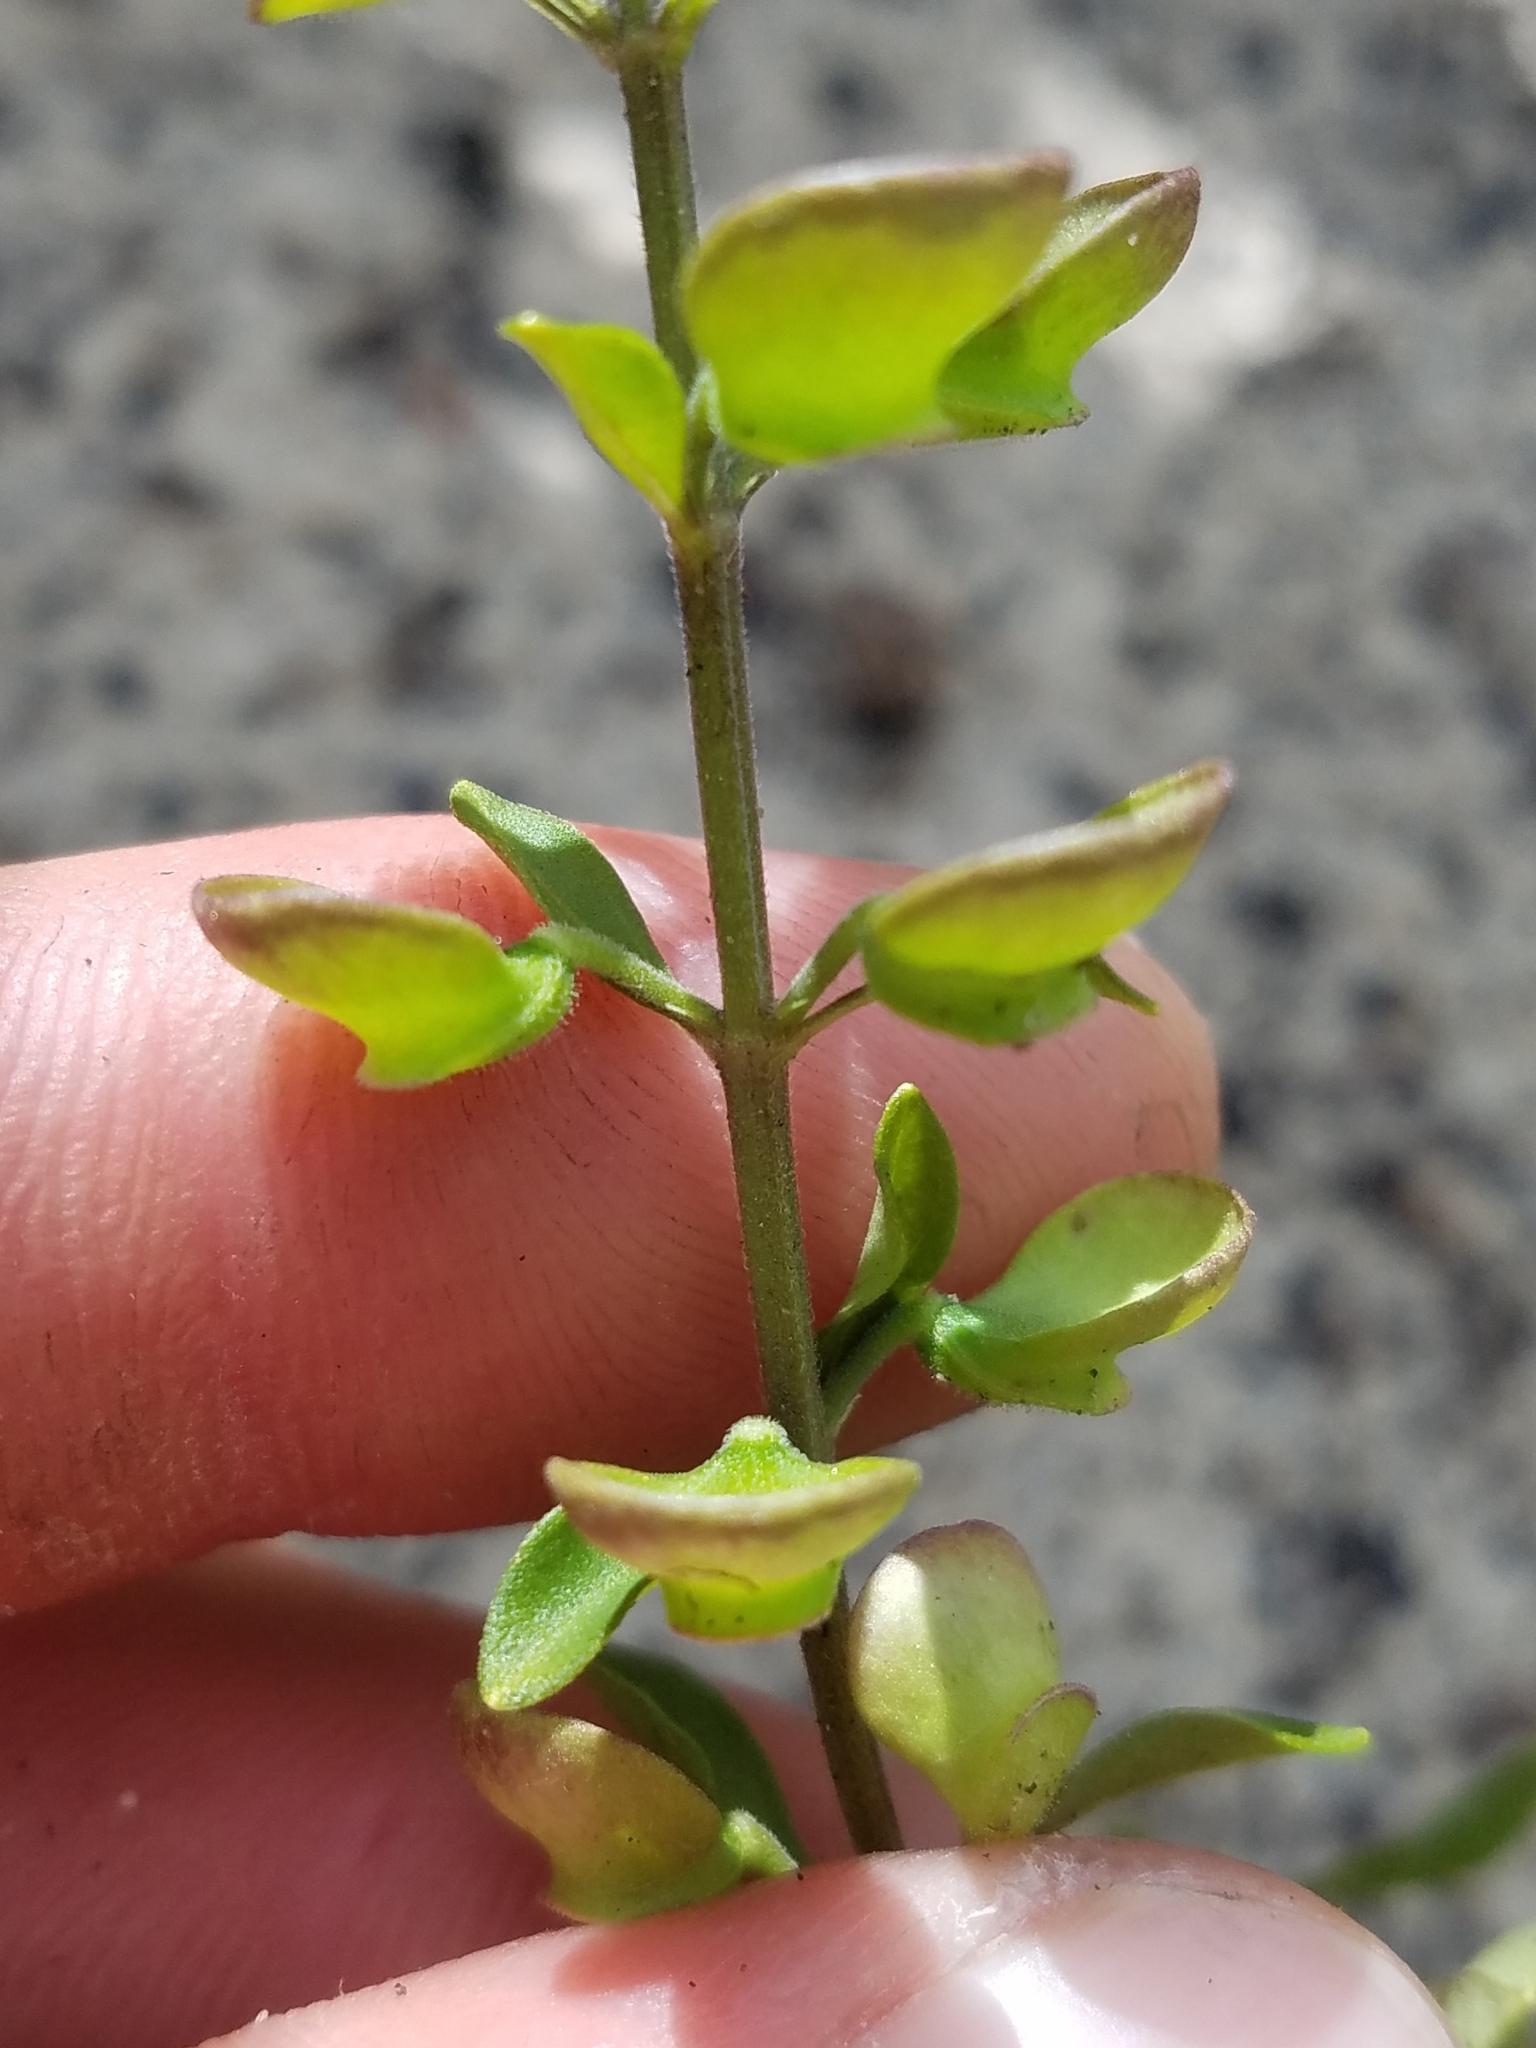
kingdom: Plantae
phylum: Tracheophyta
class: Magnoliopsida
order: Lamiales
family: Lamiaceae
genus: Scutellaria
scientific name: Scutellaria arenicola
